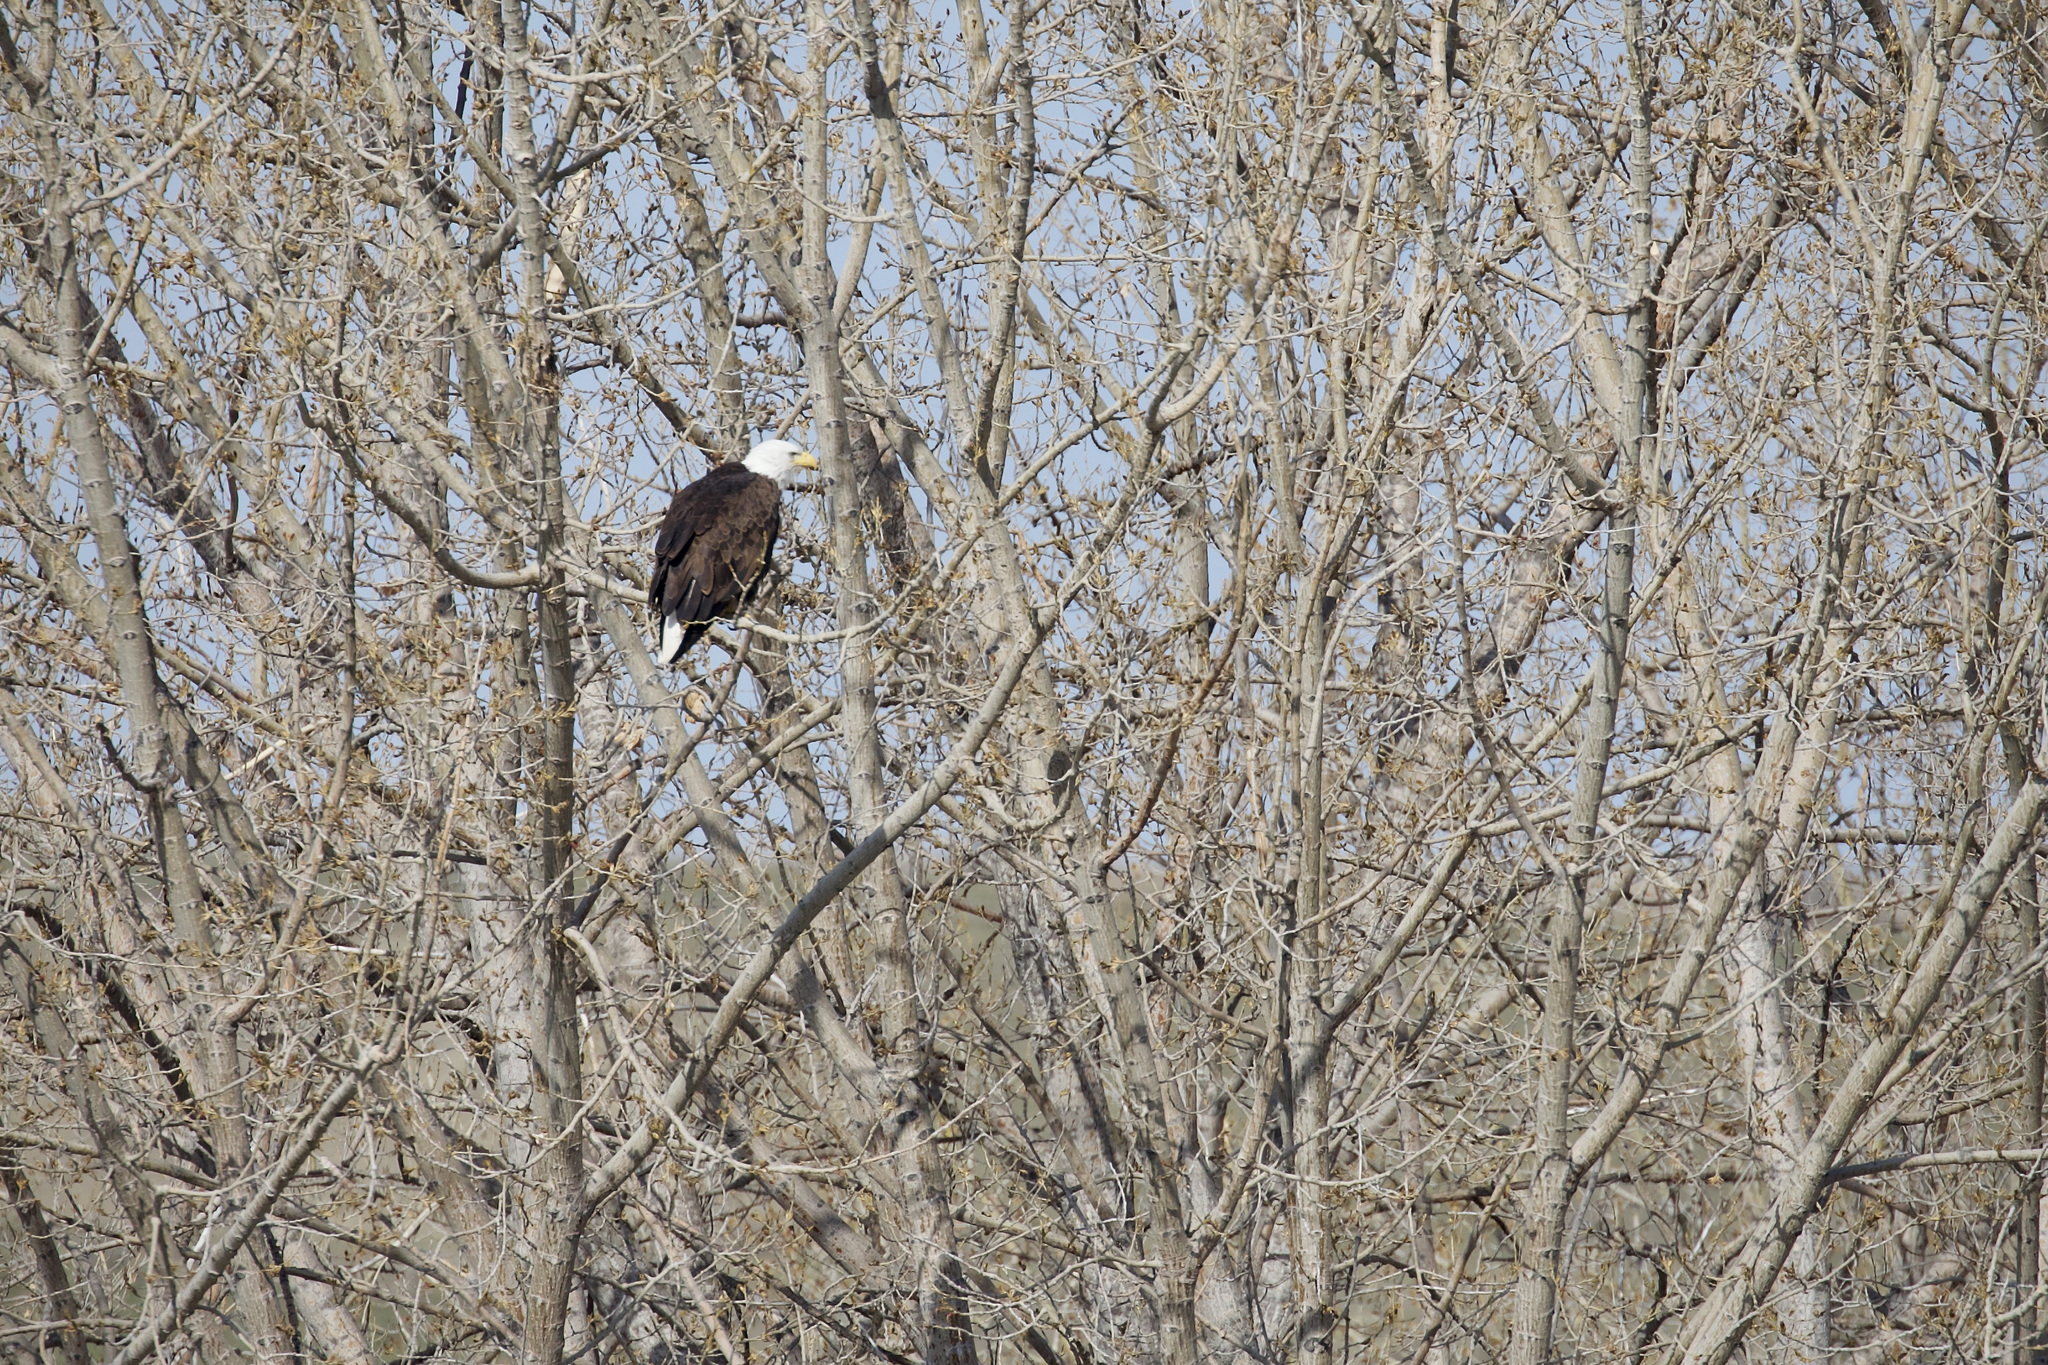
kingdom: Animalia
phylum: Chordata
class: Aves
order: Accipitriformes
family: Accipitridae
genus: Haliaeetus
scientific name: Haliaeetus leucocephalus
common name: Bald eagle
